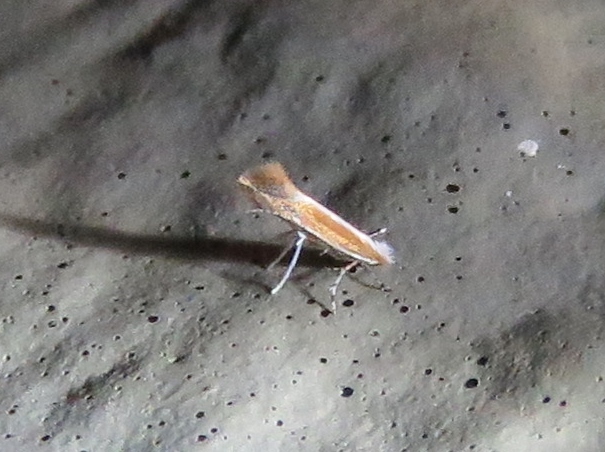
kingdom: Animalia
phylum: Arthropoda
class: Insecta
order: Lepidoptera
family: Gracillariidae
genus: Cameraria
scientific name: Cameraria conglomeratella
